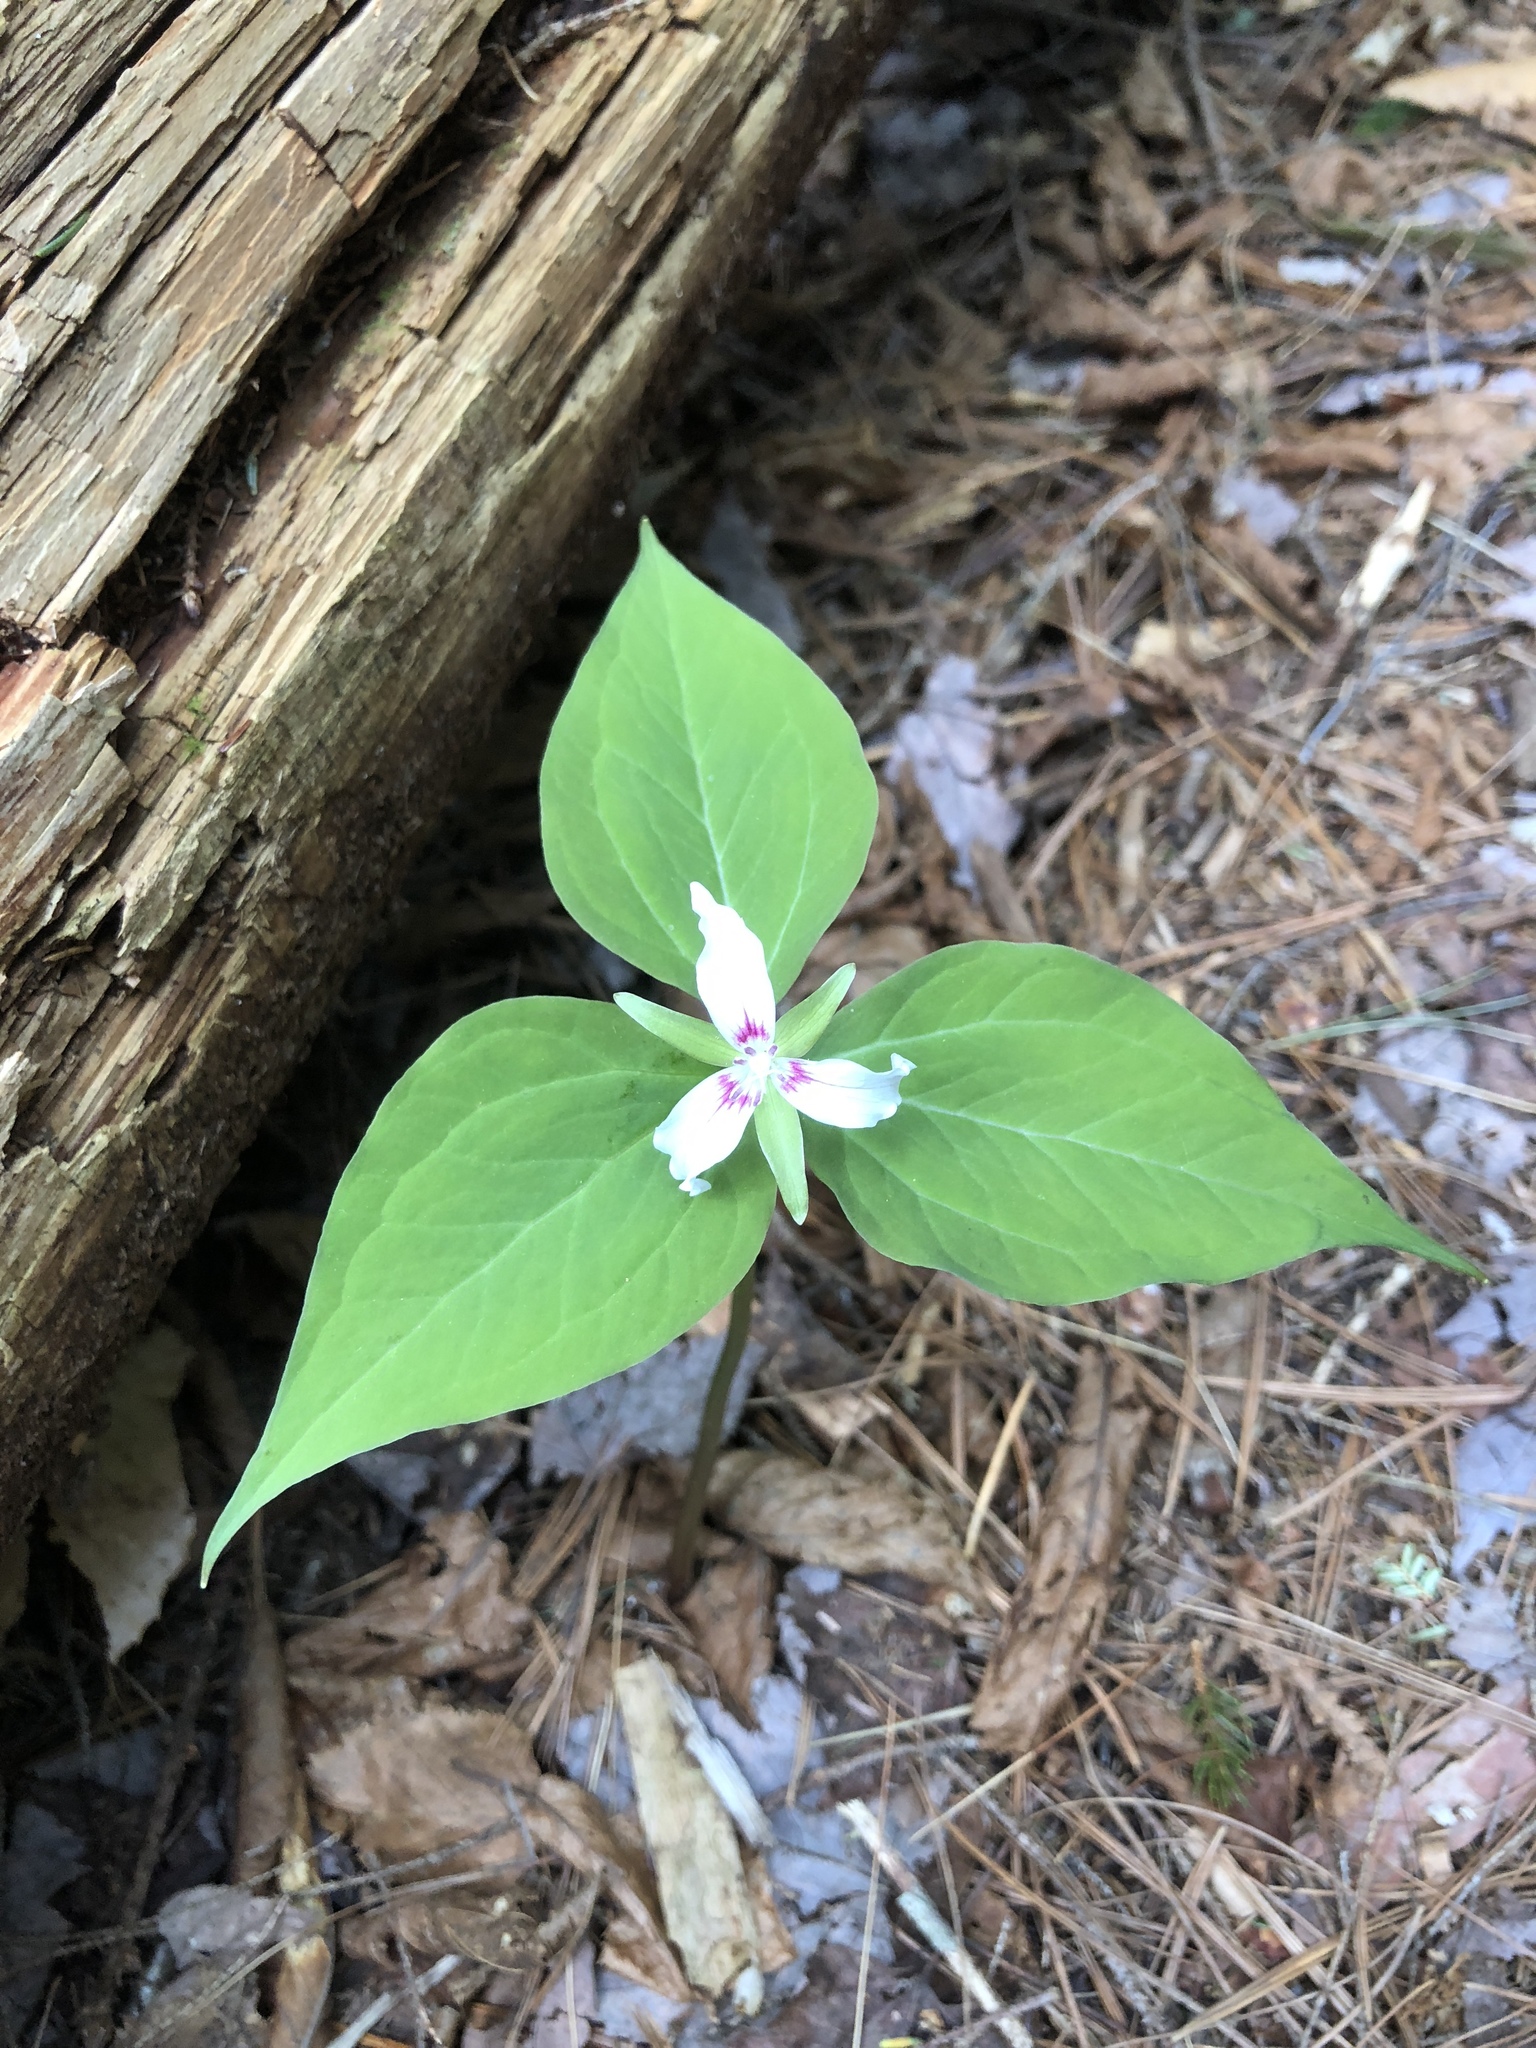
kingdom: Plantae
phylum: Tracheophyta
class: Liliopsida
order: Liliales
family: Melanthiaceae
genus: Trillium
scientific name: Trillium undulatum
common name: Paint trillium
